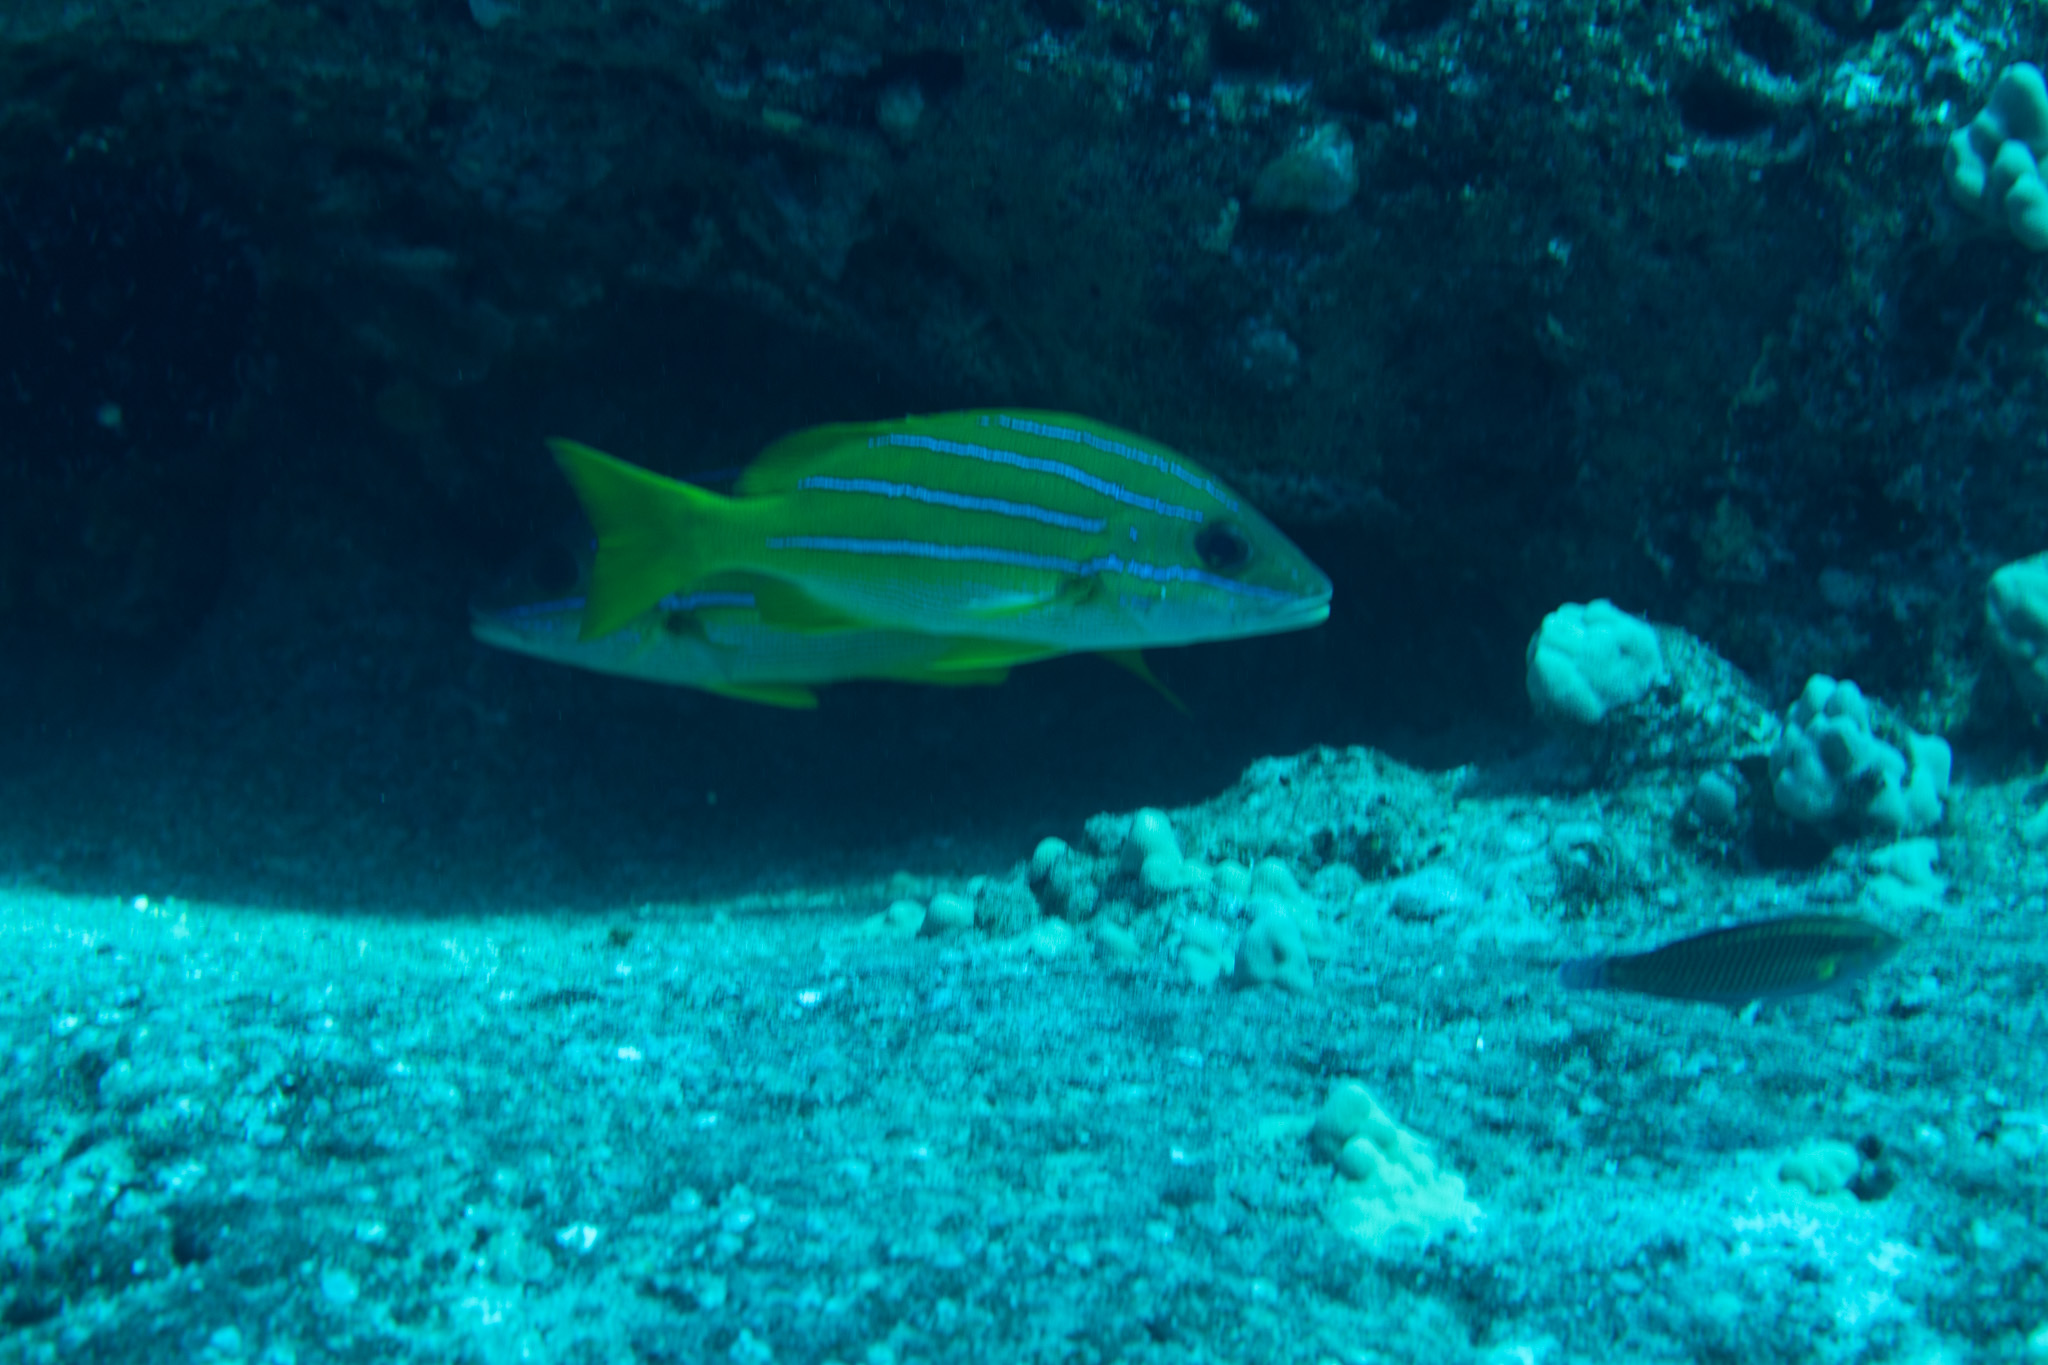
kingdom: Animalia
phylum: Chordata
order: Perciformes
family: Lutjanidae
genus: Lutjanus
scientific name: Lutjanus kasmira
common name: Common bluestripe snapper
